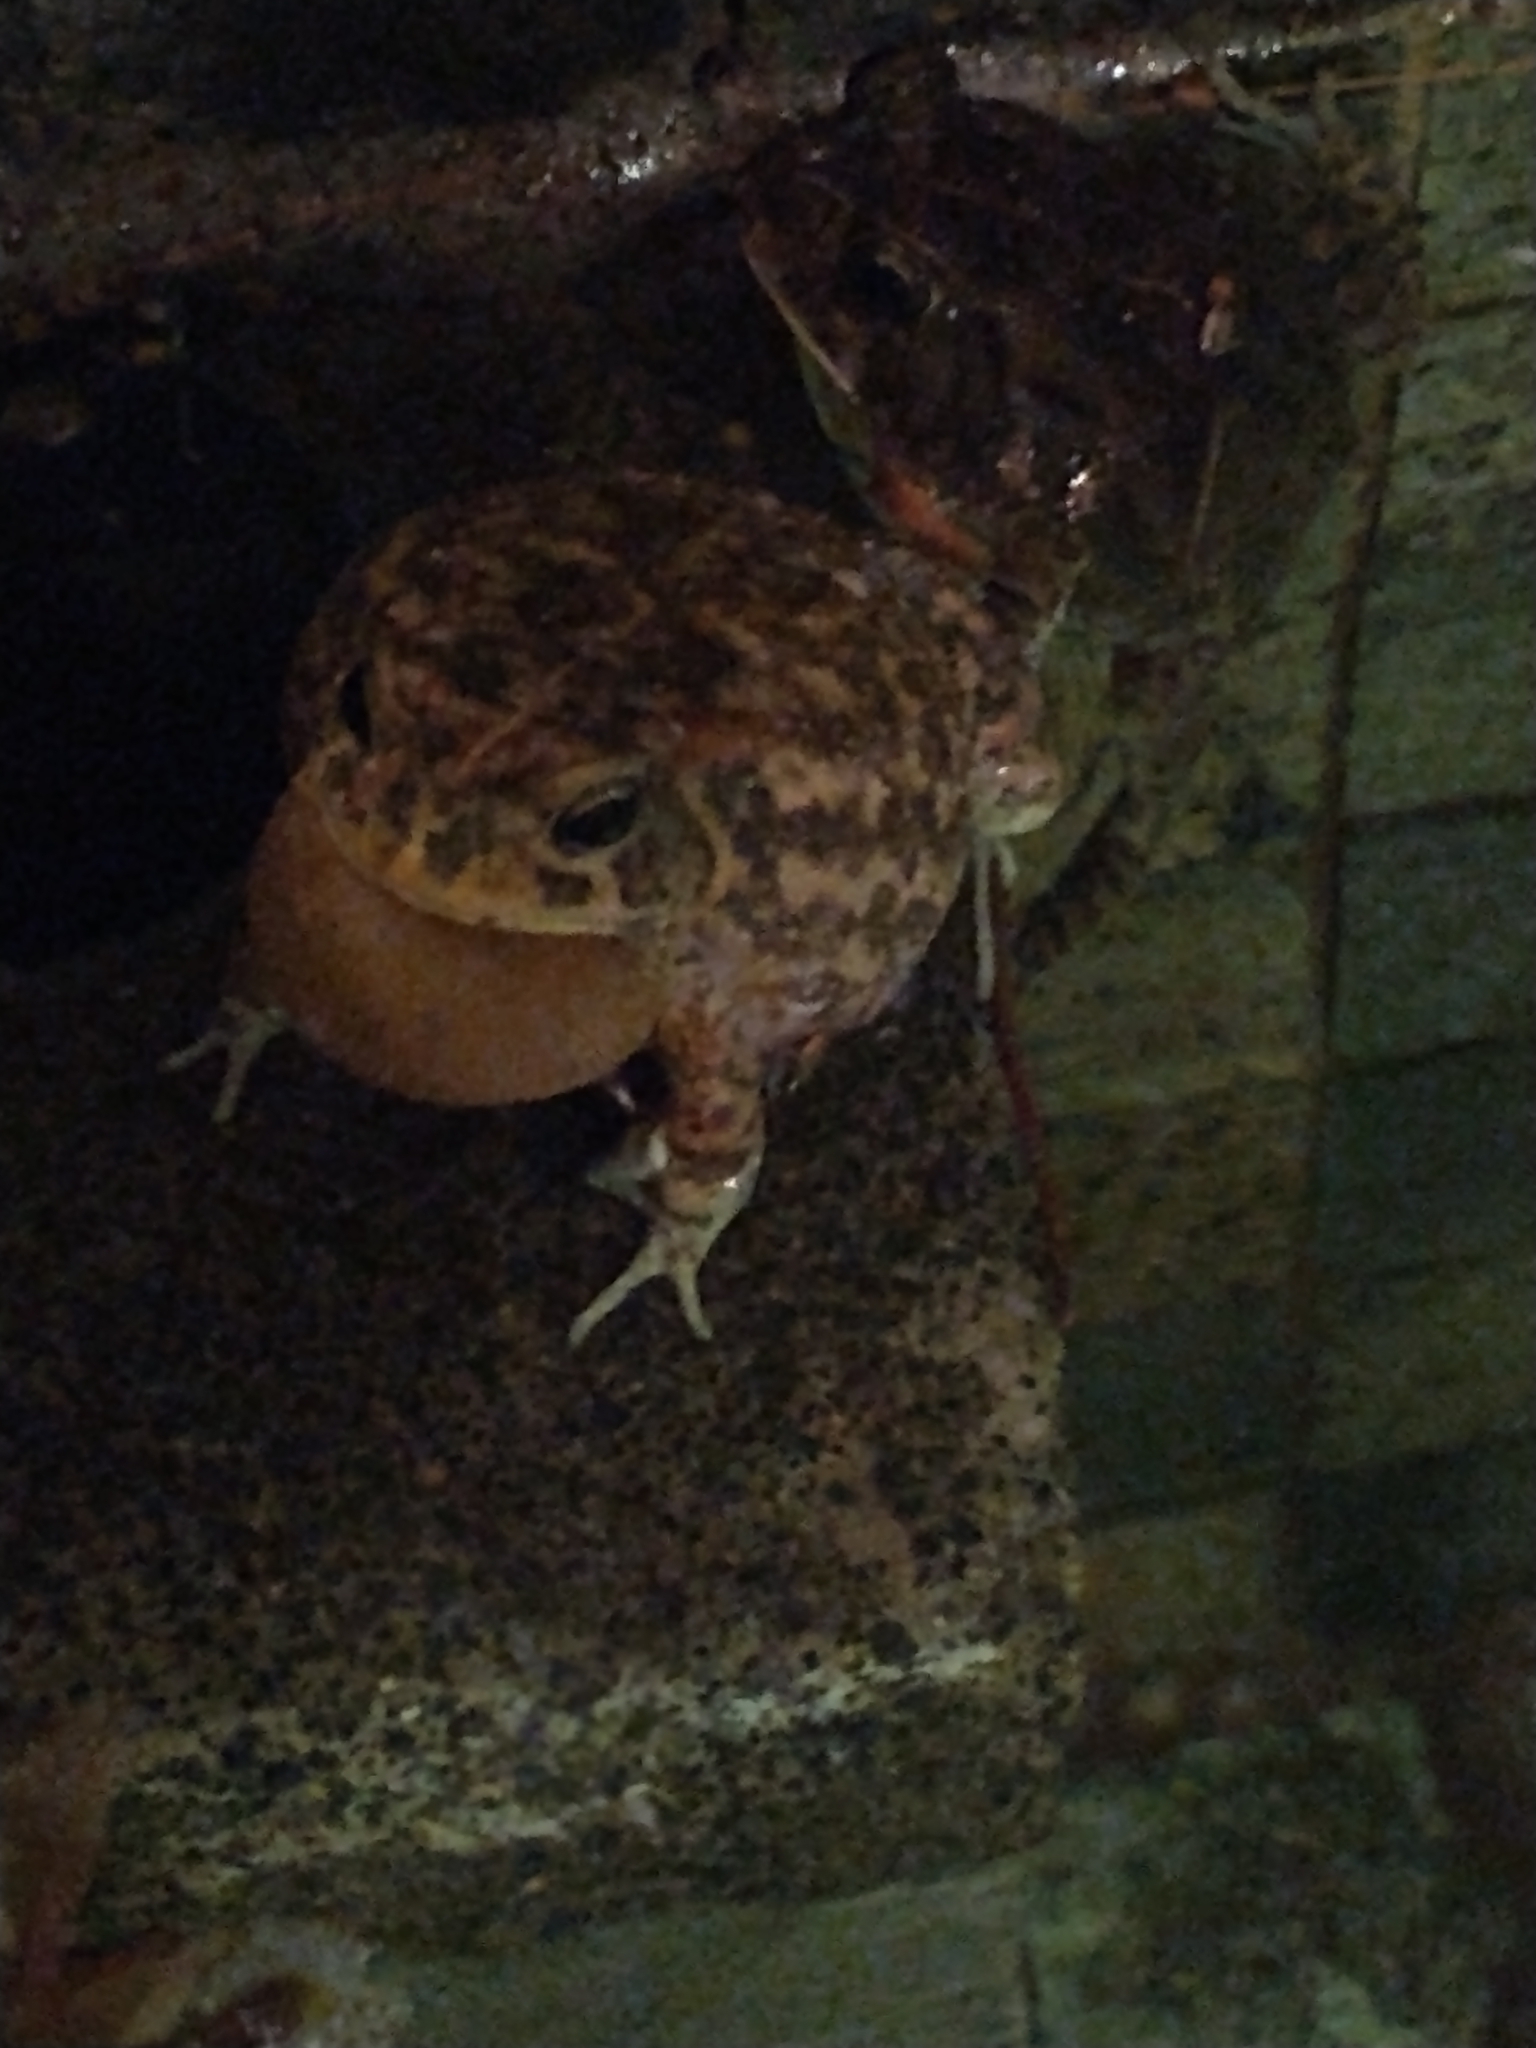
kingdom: Animalia
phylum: Chordata
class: Amphibia
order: Anura
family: Bufonidae
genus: Sclerophrys
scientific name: Sclerophrys gutturalis
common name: African common toad
